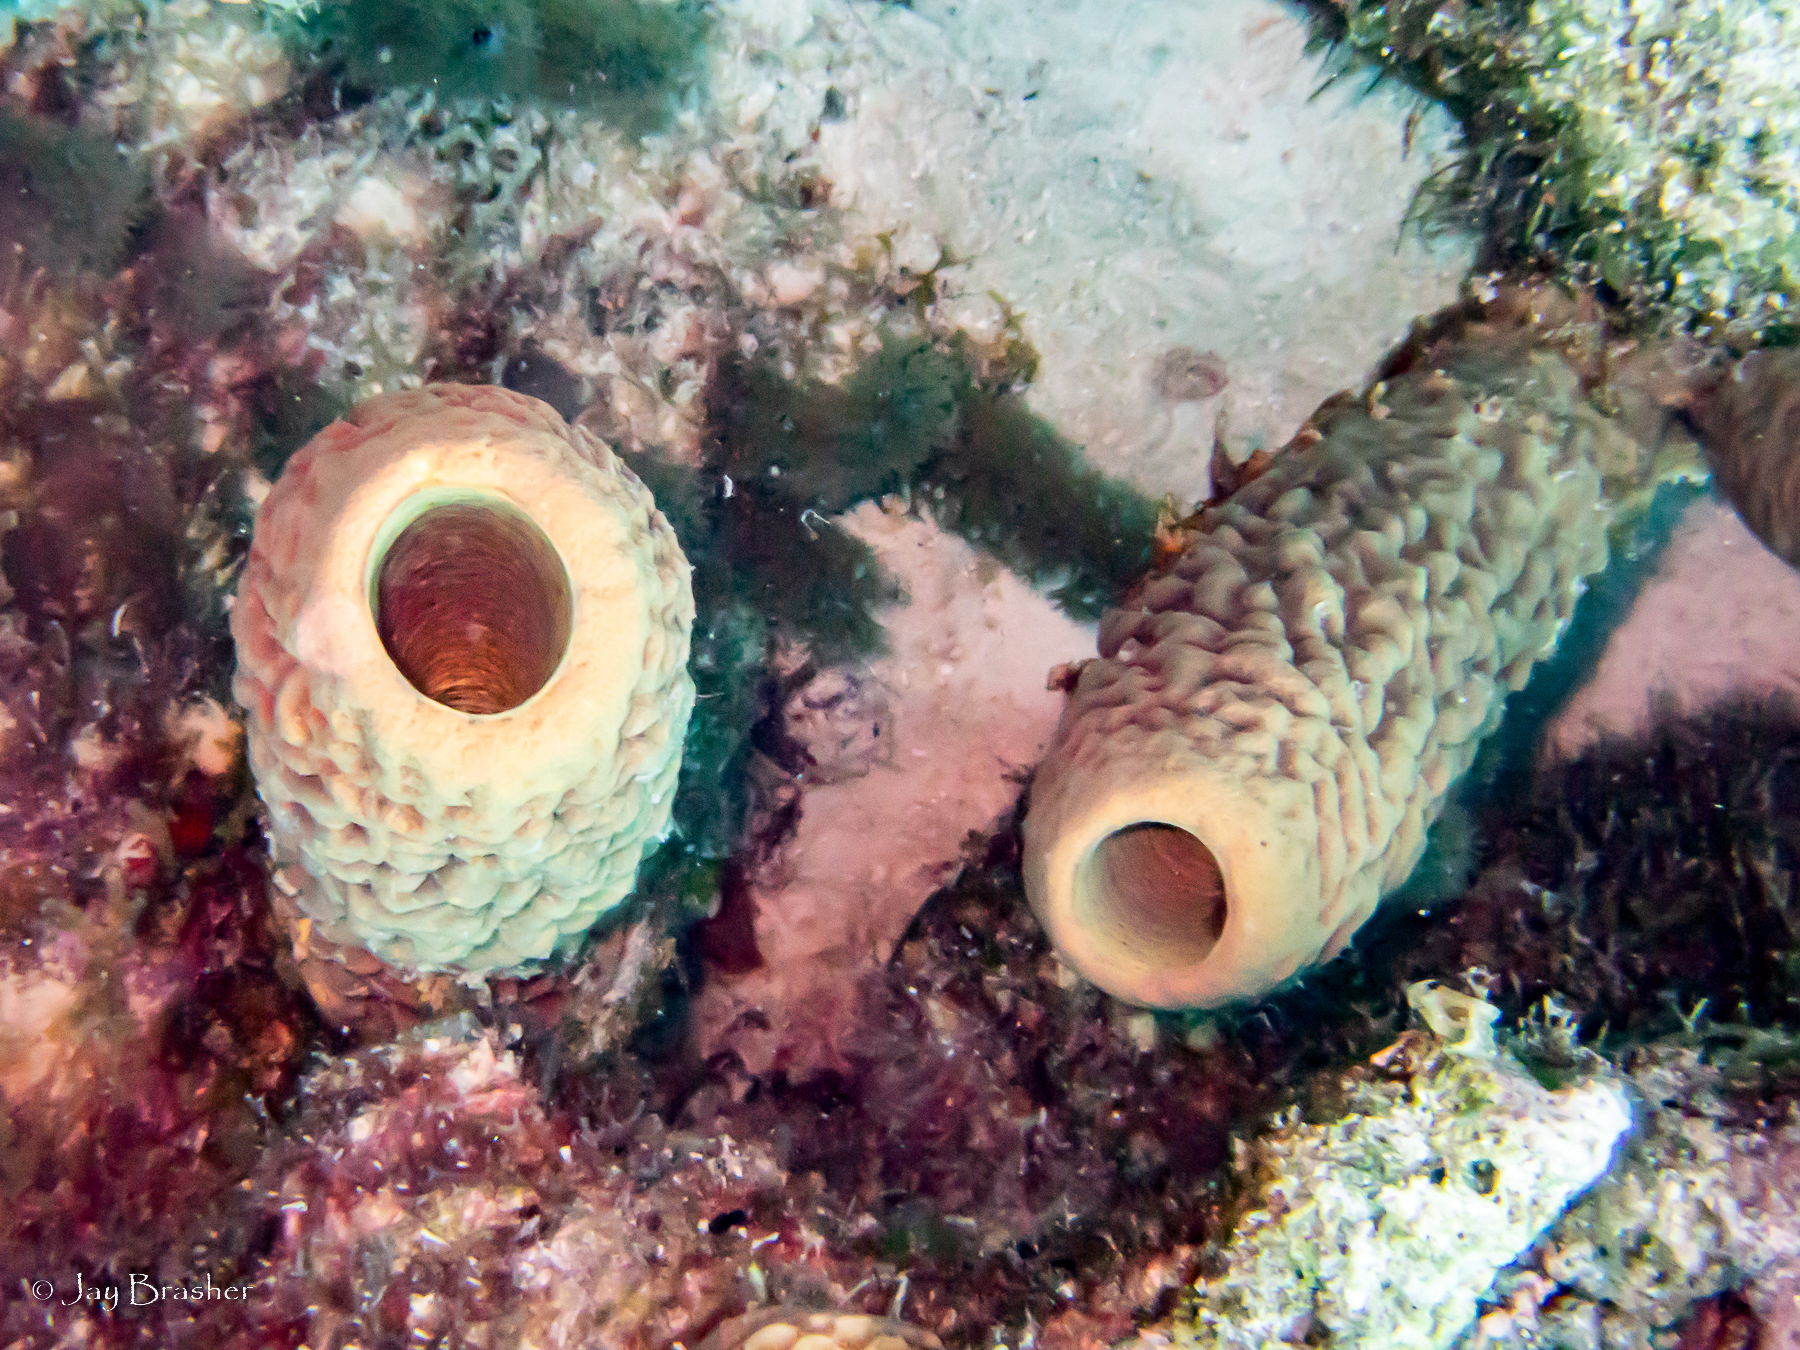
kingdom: Animalia
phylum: Porifera
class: Demospongiae
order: Verongiida
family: Aplysinidae
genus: Aplysina
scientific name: Aplysina archeri
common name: Stove-pipe sponge
